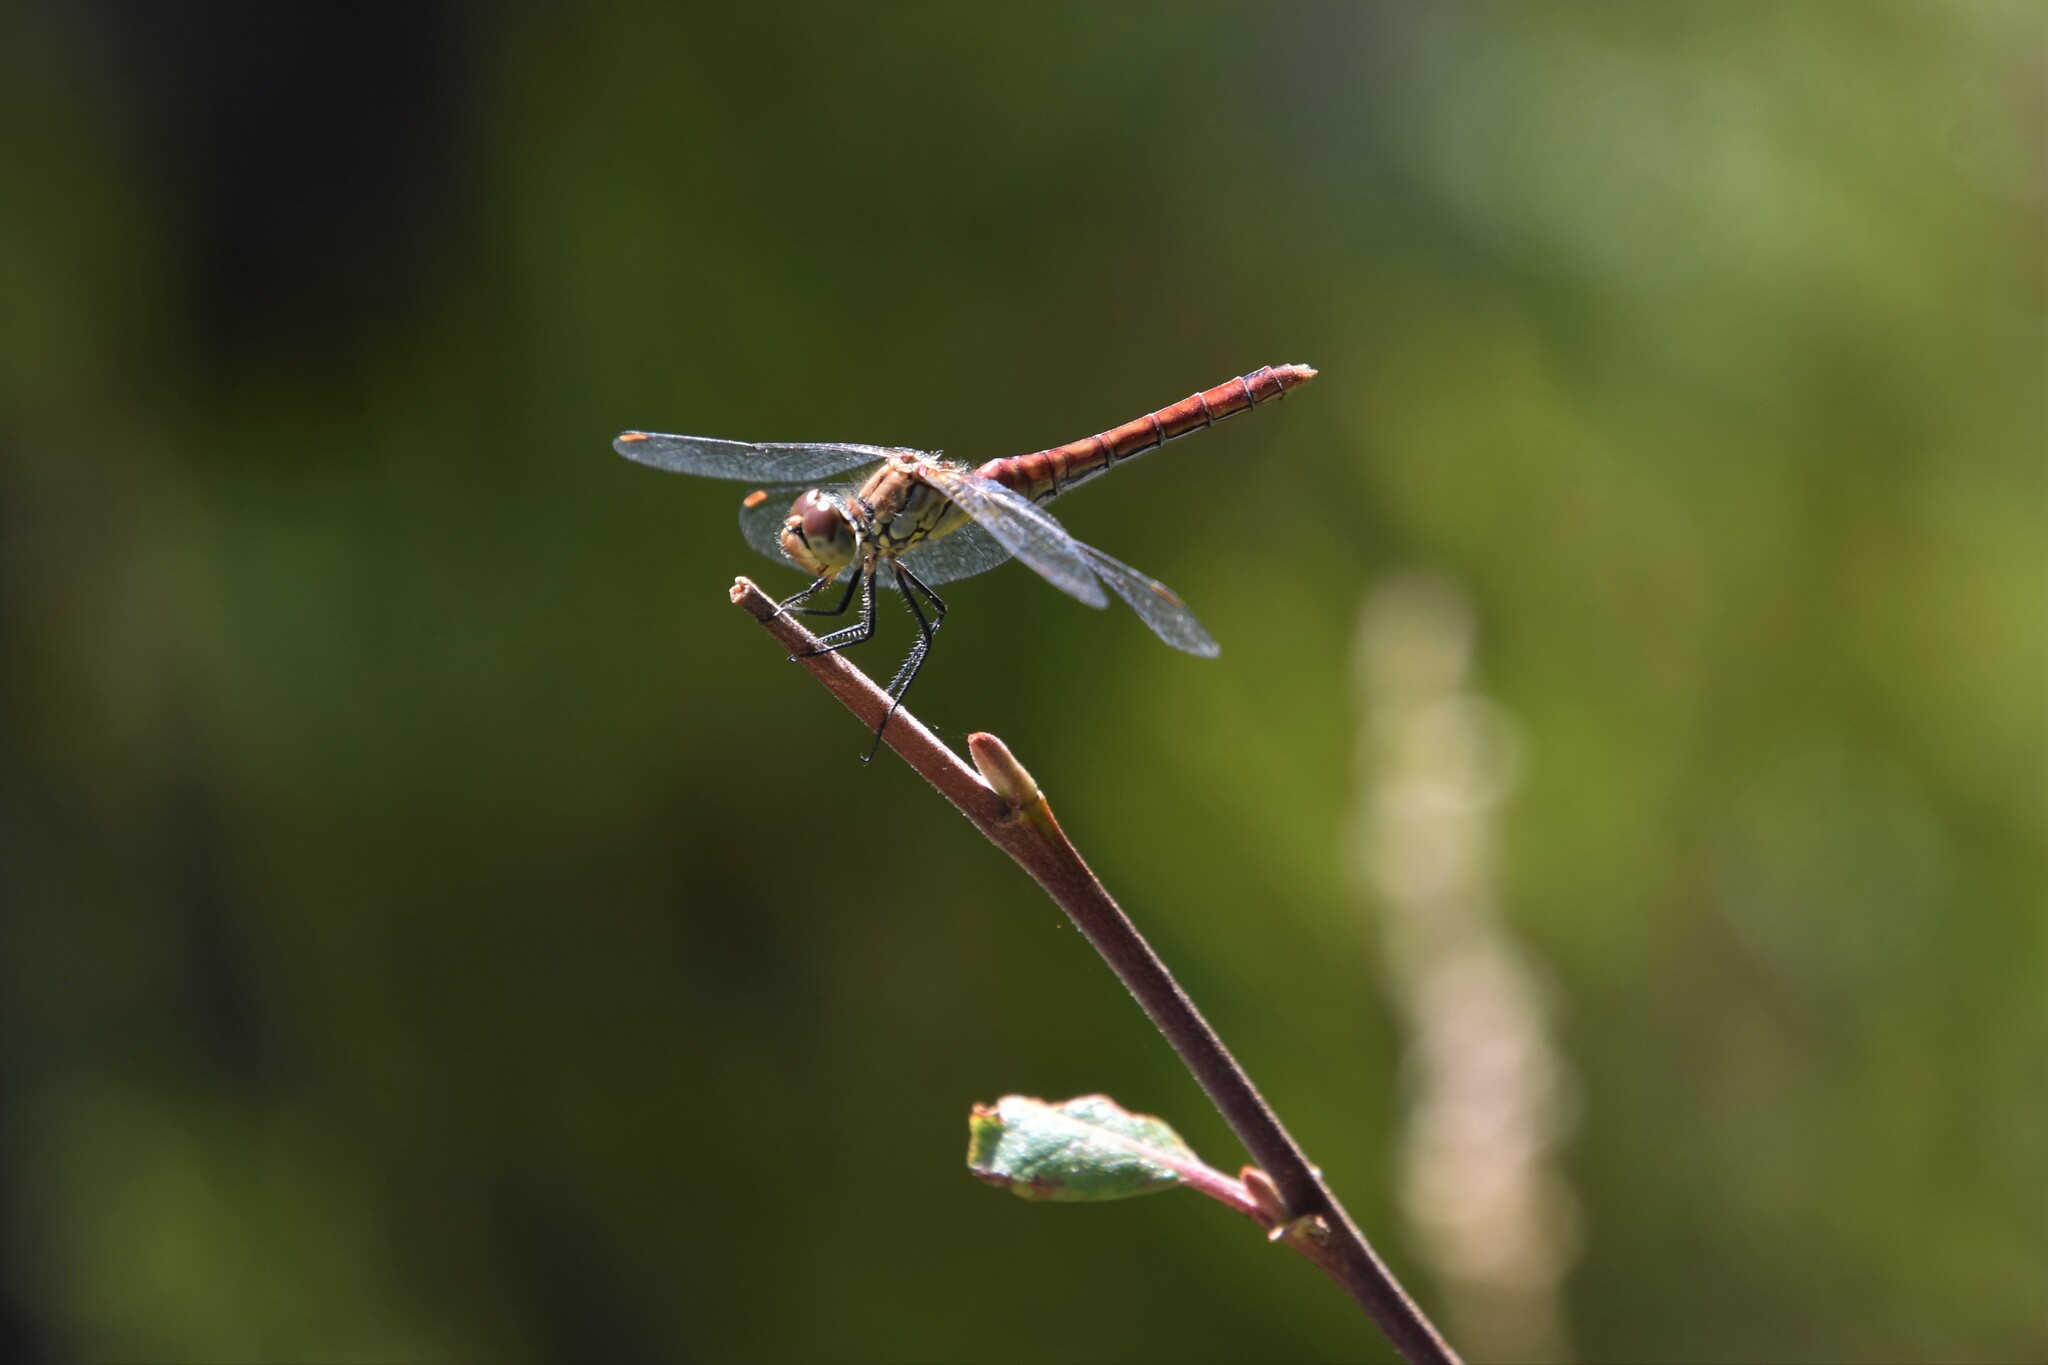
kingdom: Animalia
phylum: Arthropoda
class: Insecta
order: Odonata
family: Libellulidae
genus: Sympetrum
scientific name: Sympetrum sanguineum
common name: Ruddy darter
